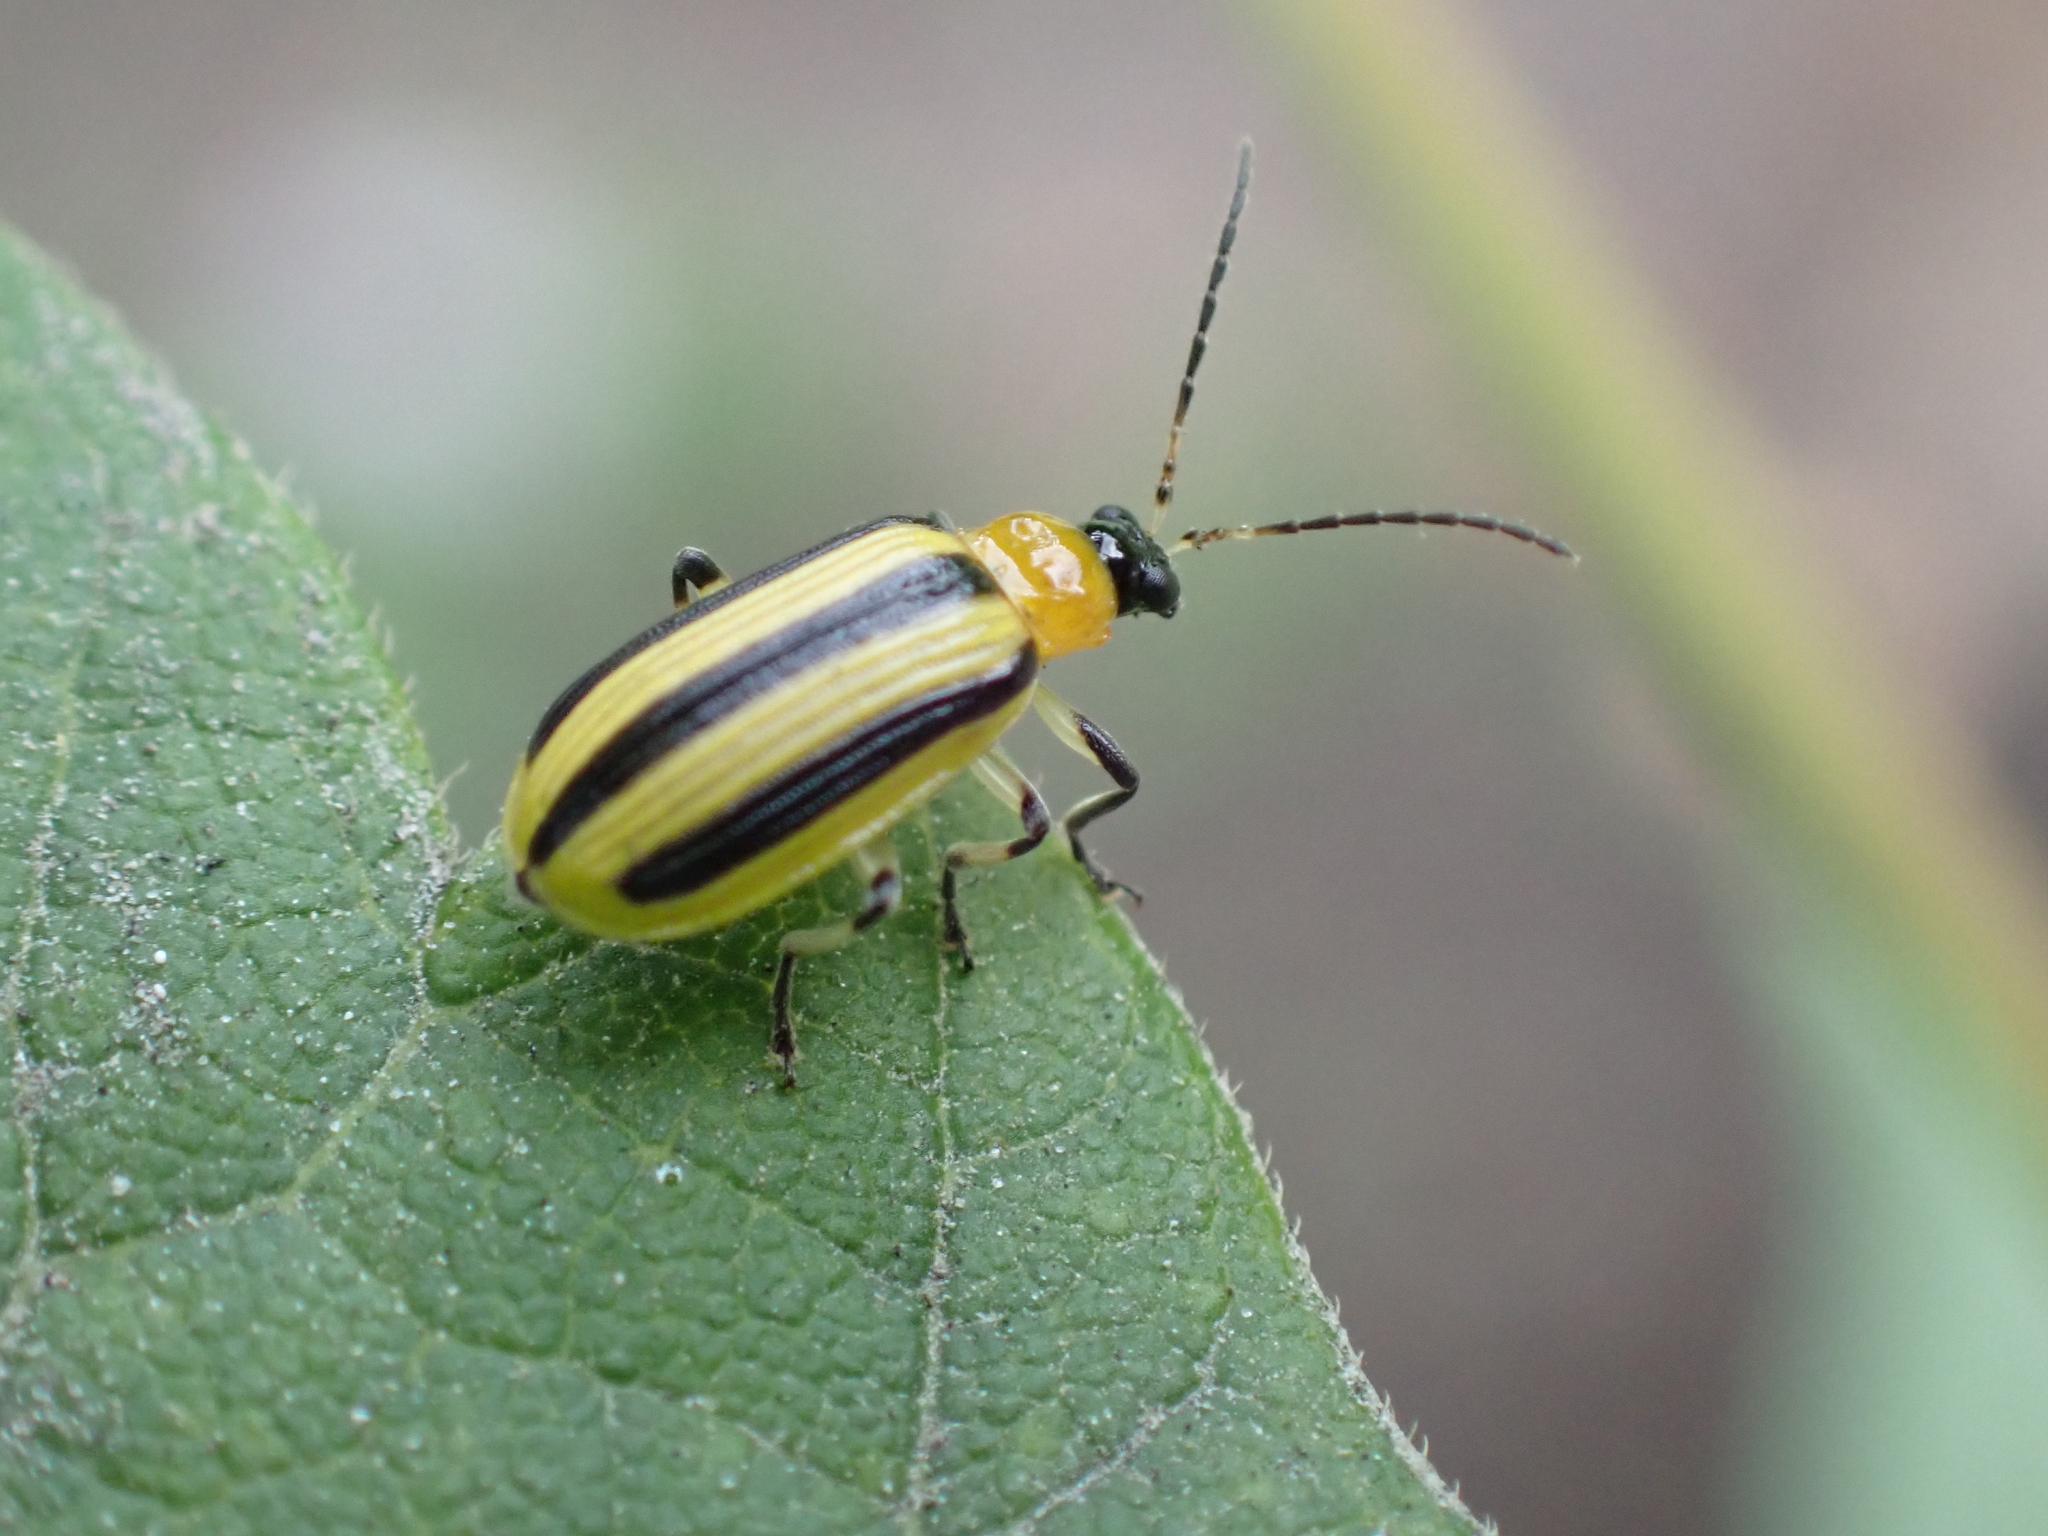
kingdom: Animalia
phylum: Arthropoda
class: Insecta
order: Coleoptera
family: Chrysomelidae
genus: Acalymma
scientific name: Acalymma vittatum
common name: Striped cucumber beetle
